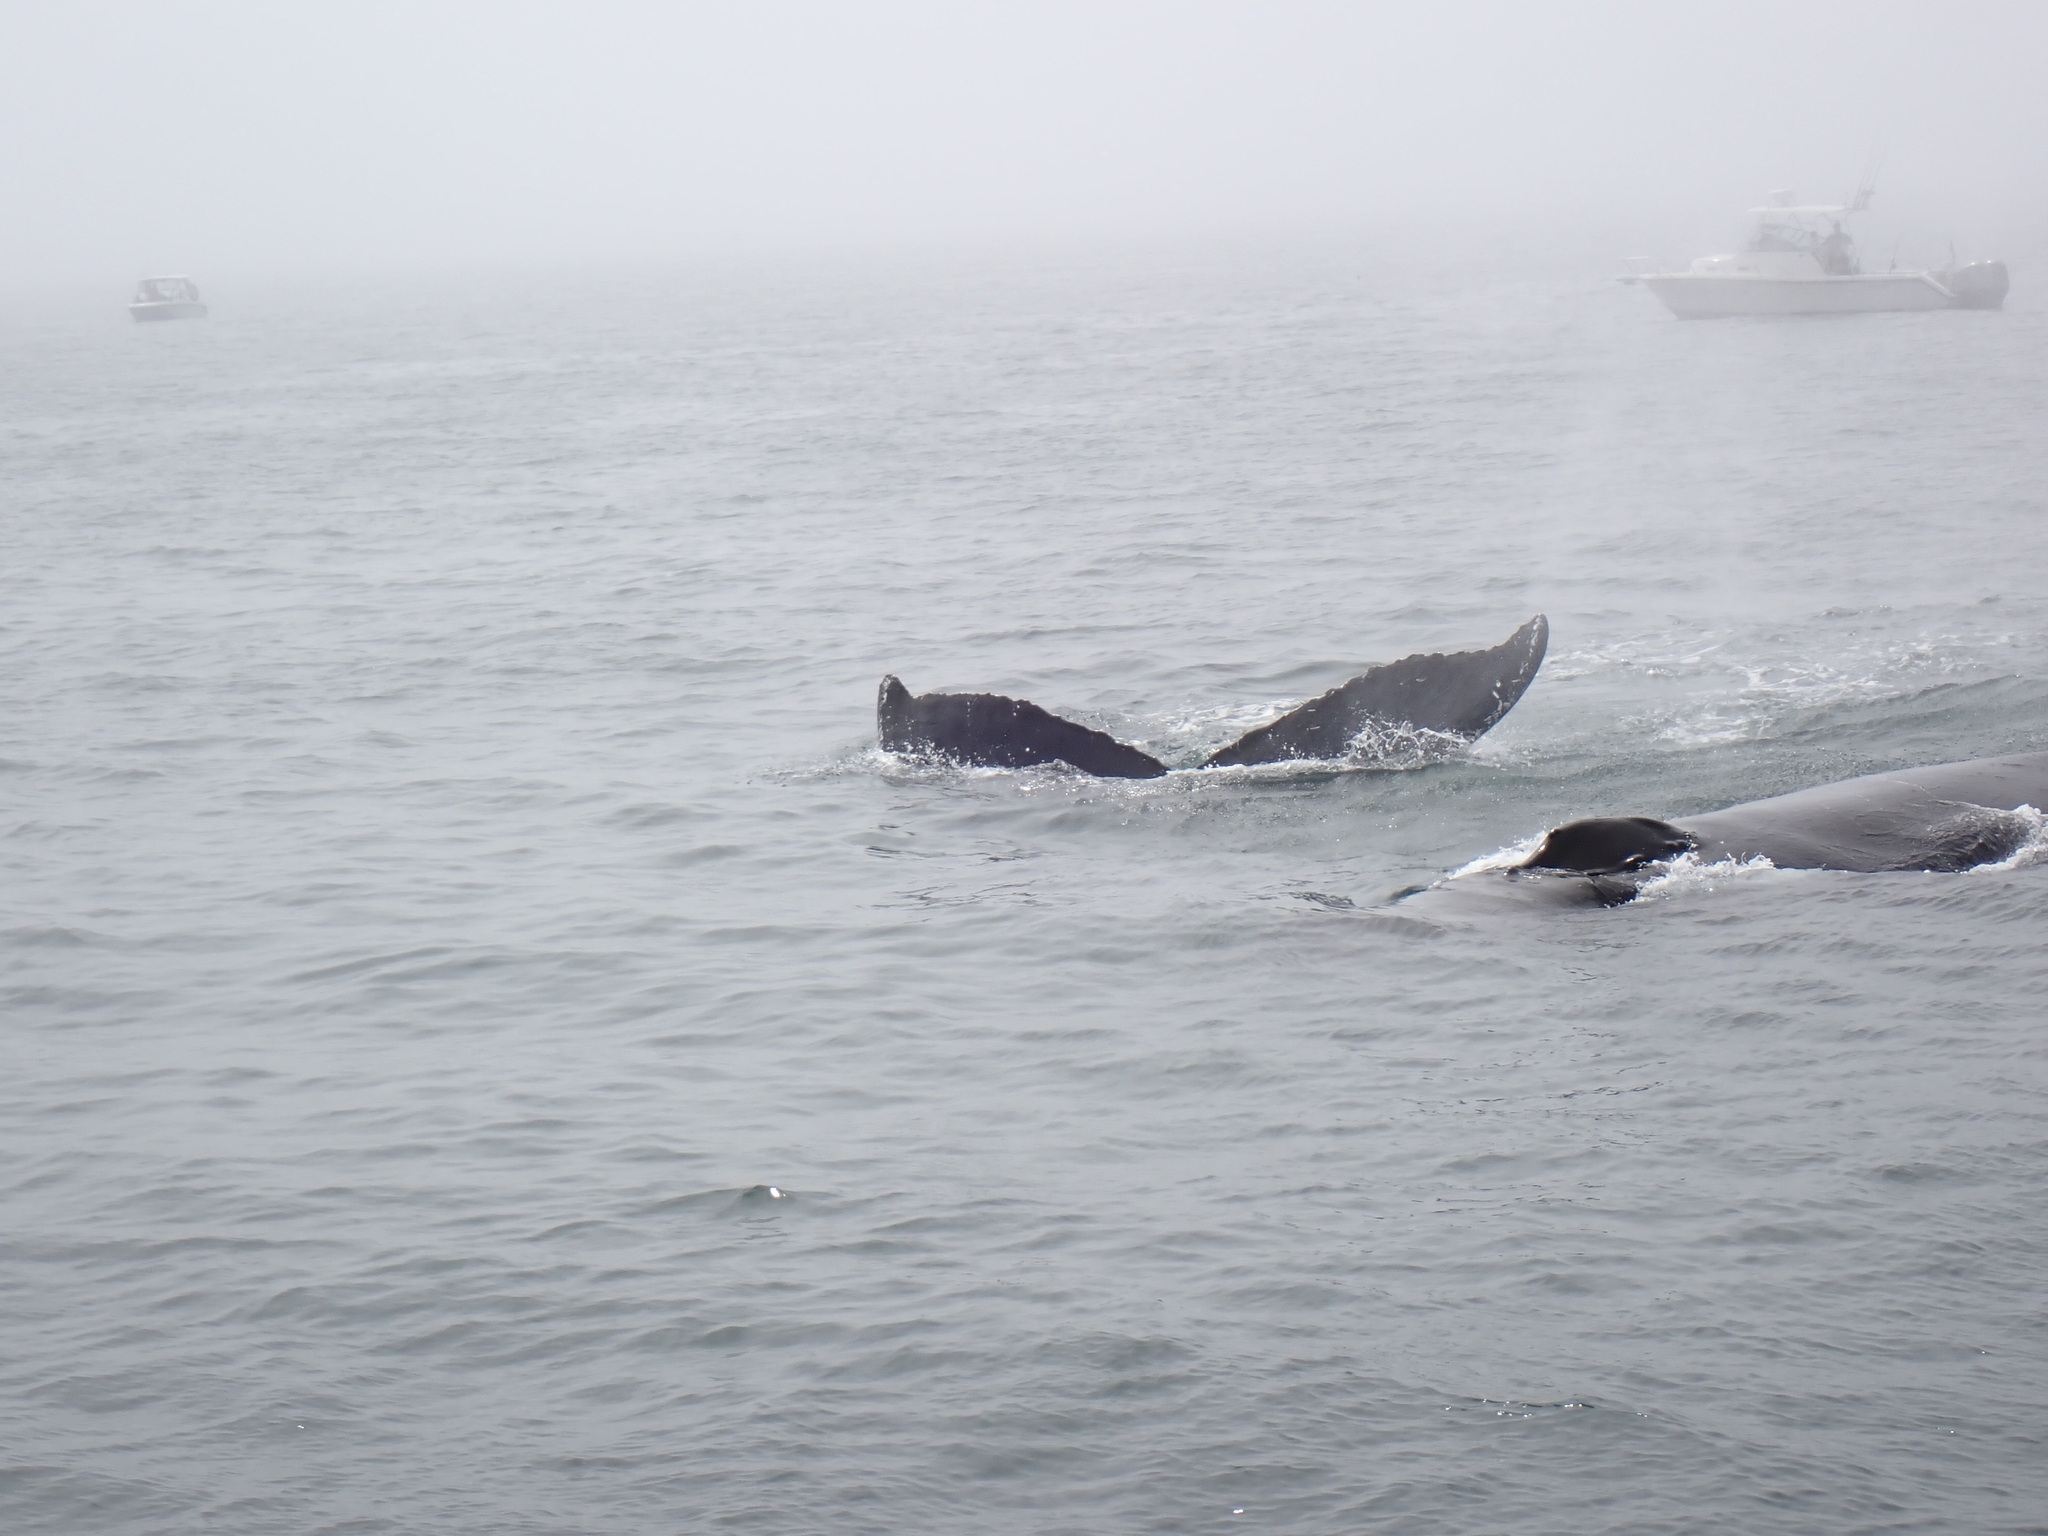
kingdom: Animalia
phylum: Chordata
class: Mammalia
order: Cetacea
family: Balaenopteridae
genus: Megaptera
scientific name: Megaptera novaeangliae
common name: Humpback whale
